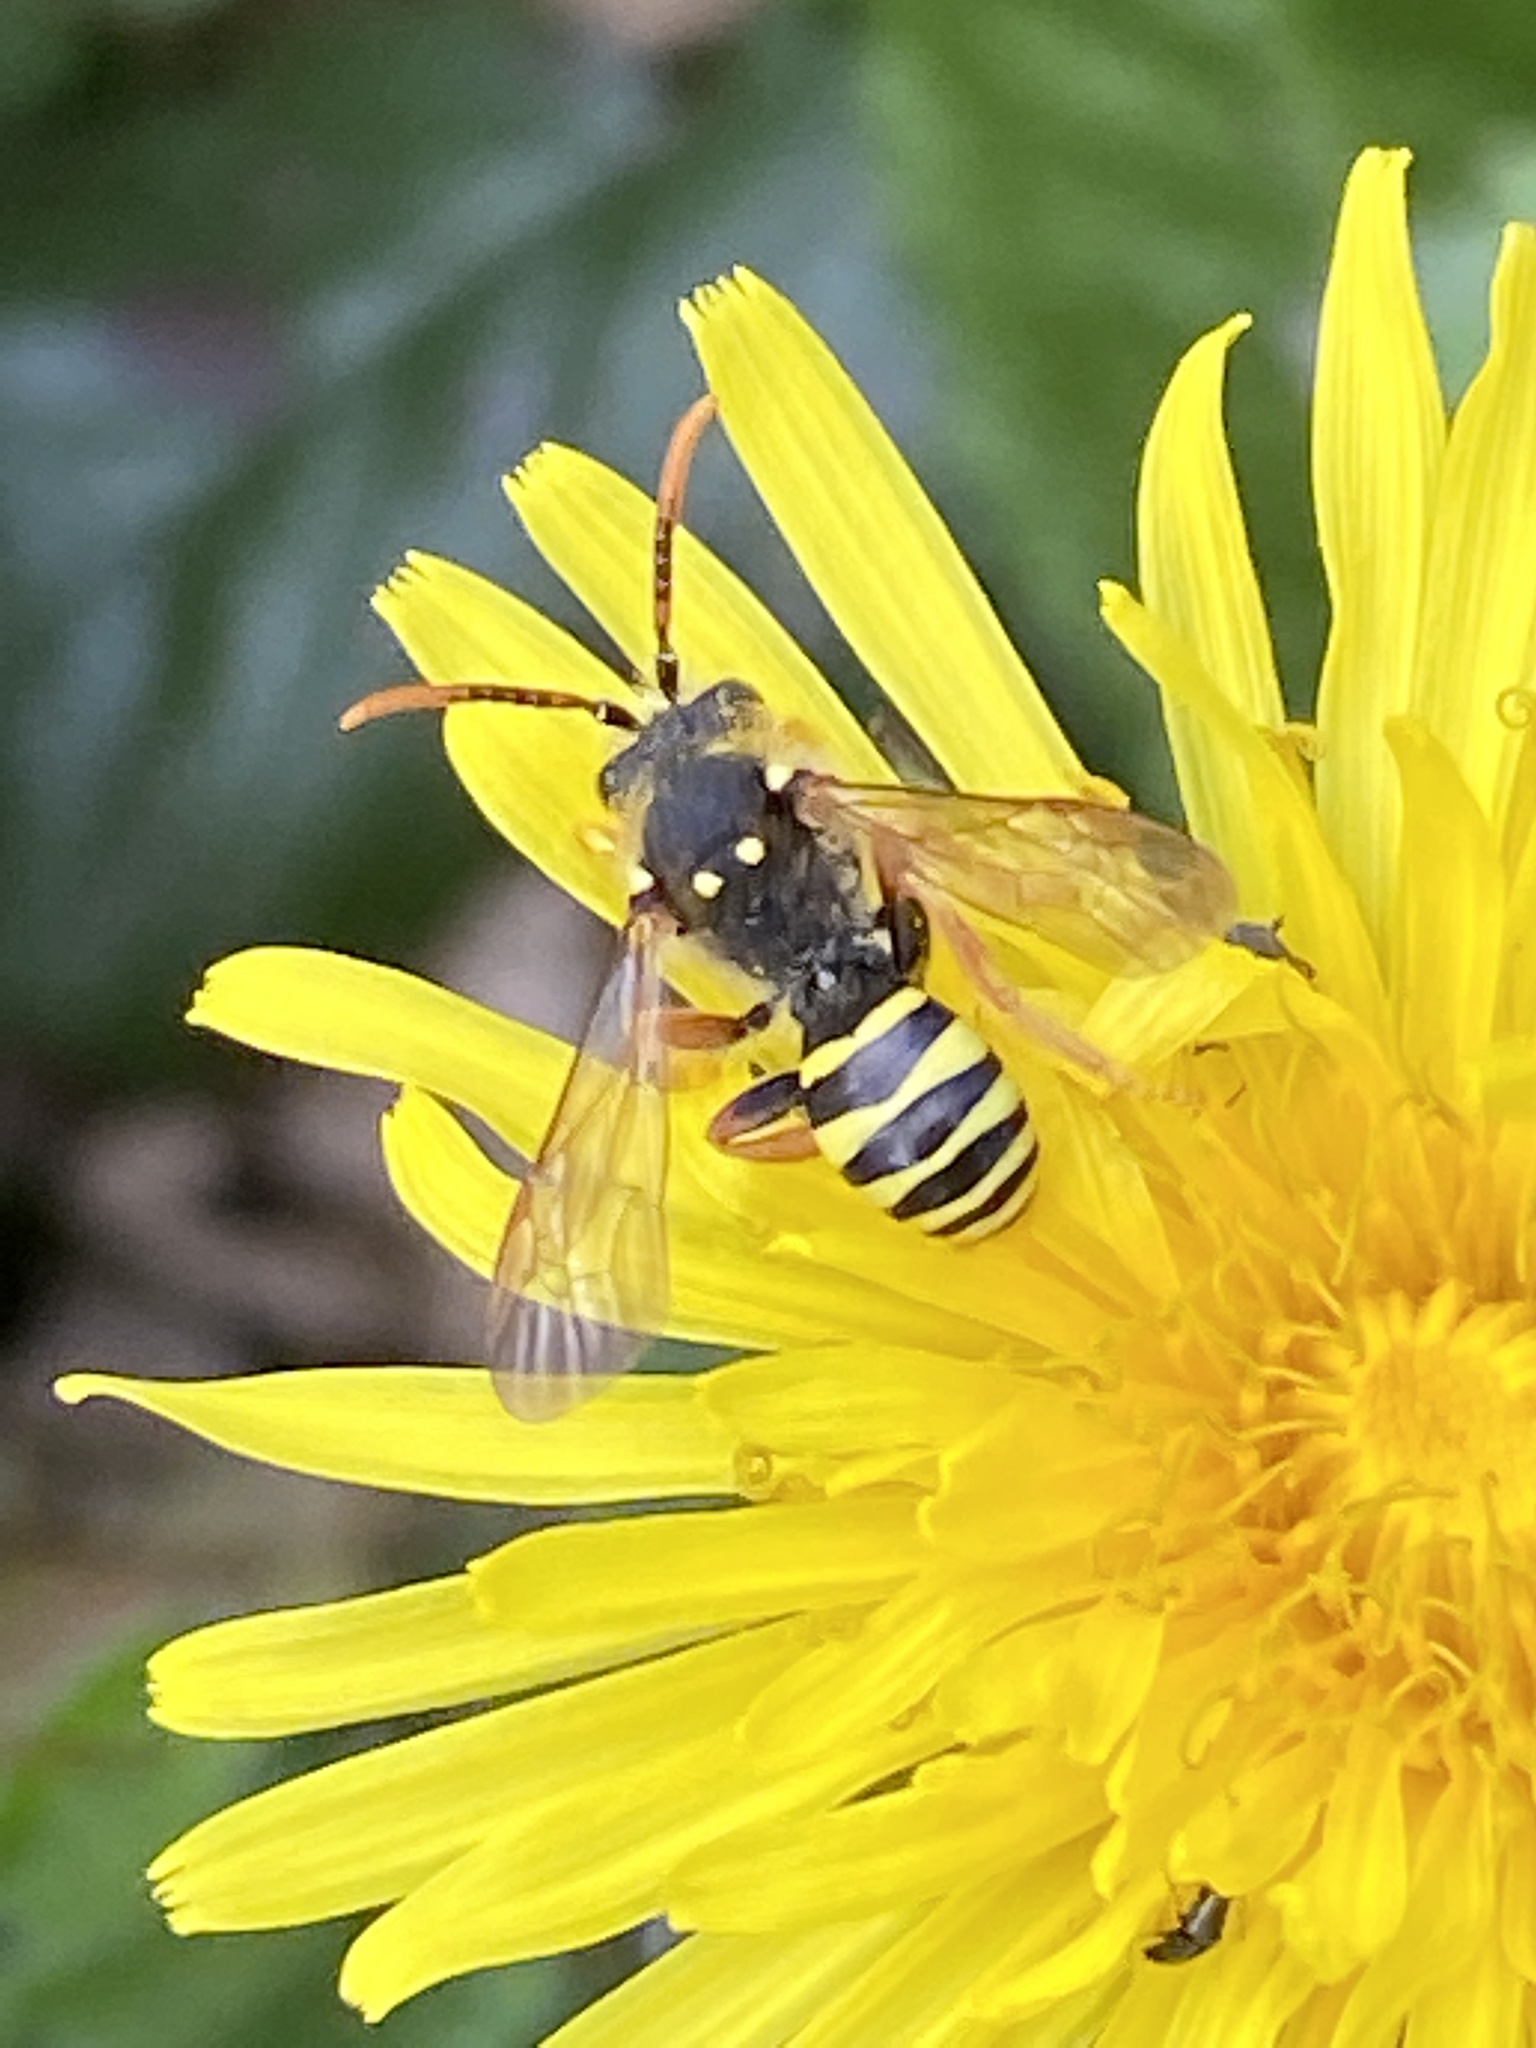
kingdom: Animalia
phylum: Arthropoda
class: Insecta
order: Hymenoptera
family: Apidae
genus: Nomada
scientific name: Nomada goodeniana
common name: Gooden's nomad bee
